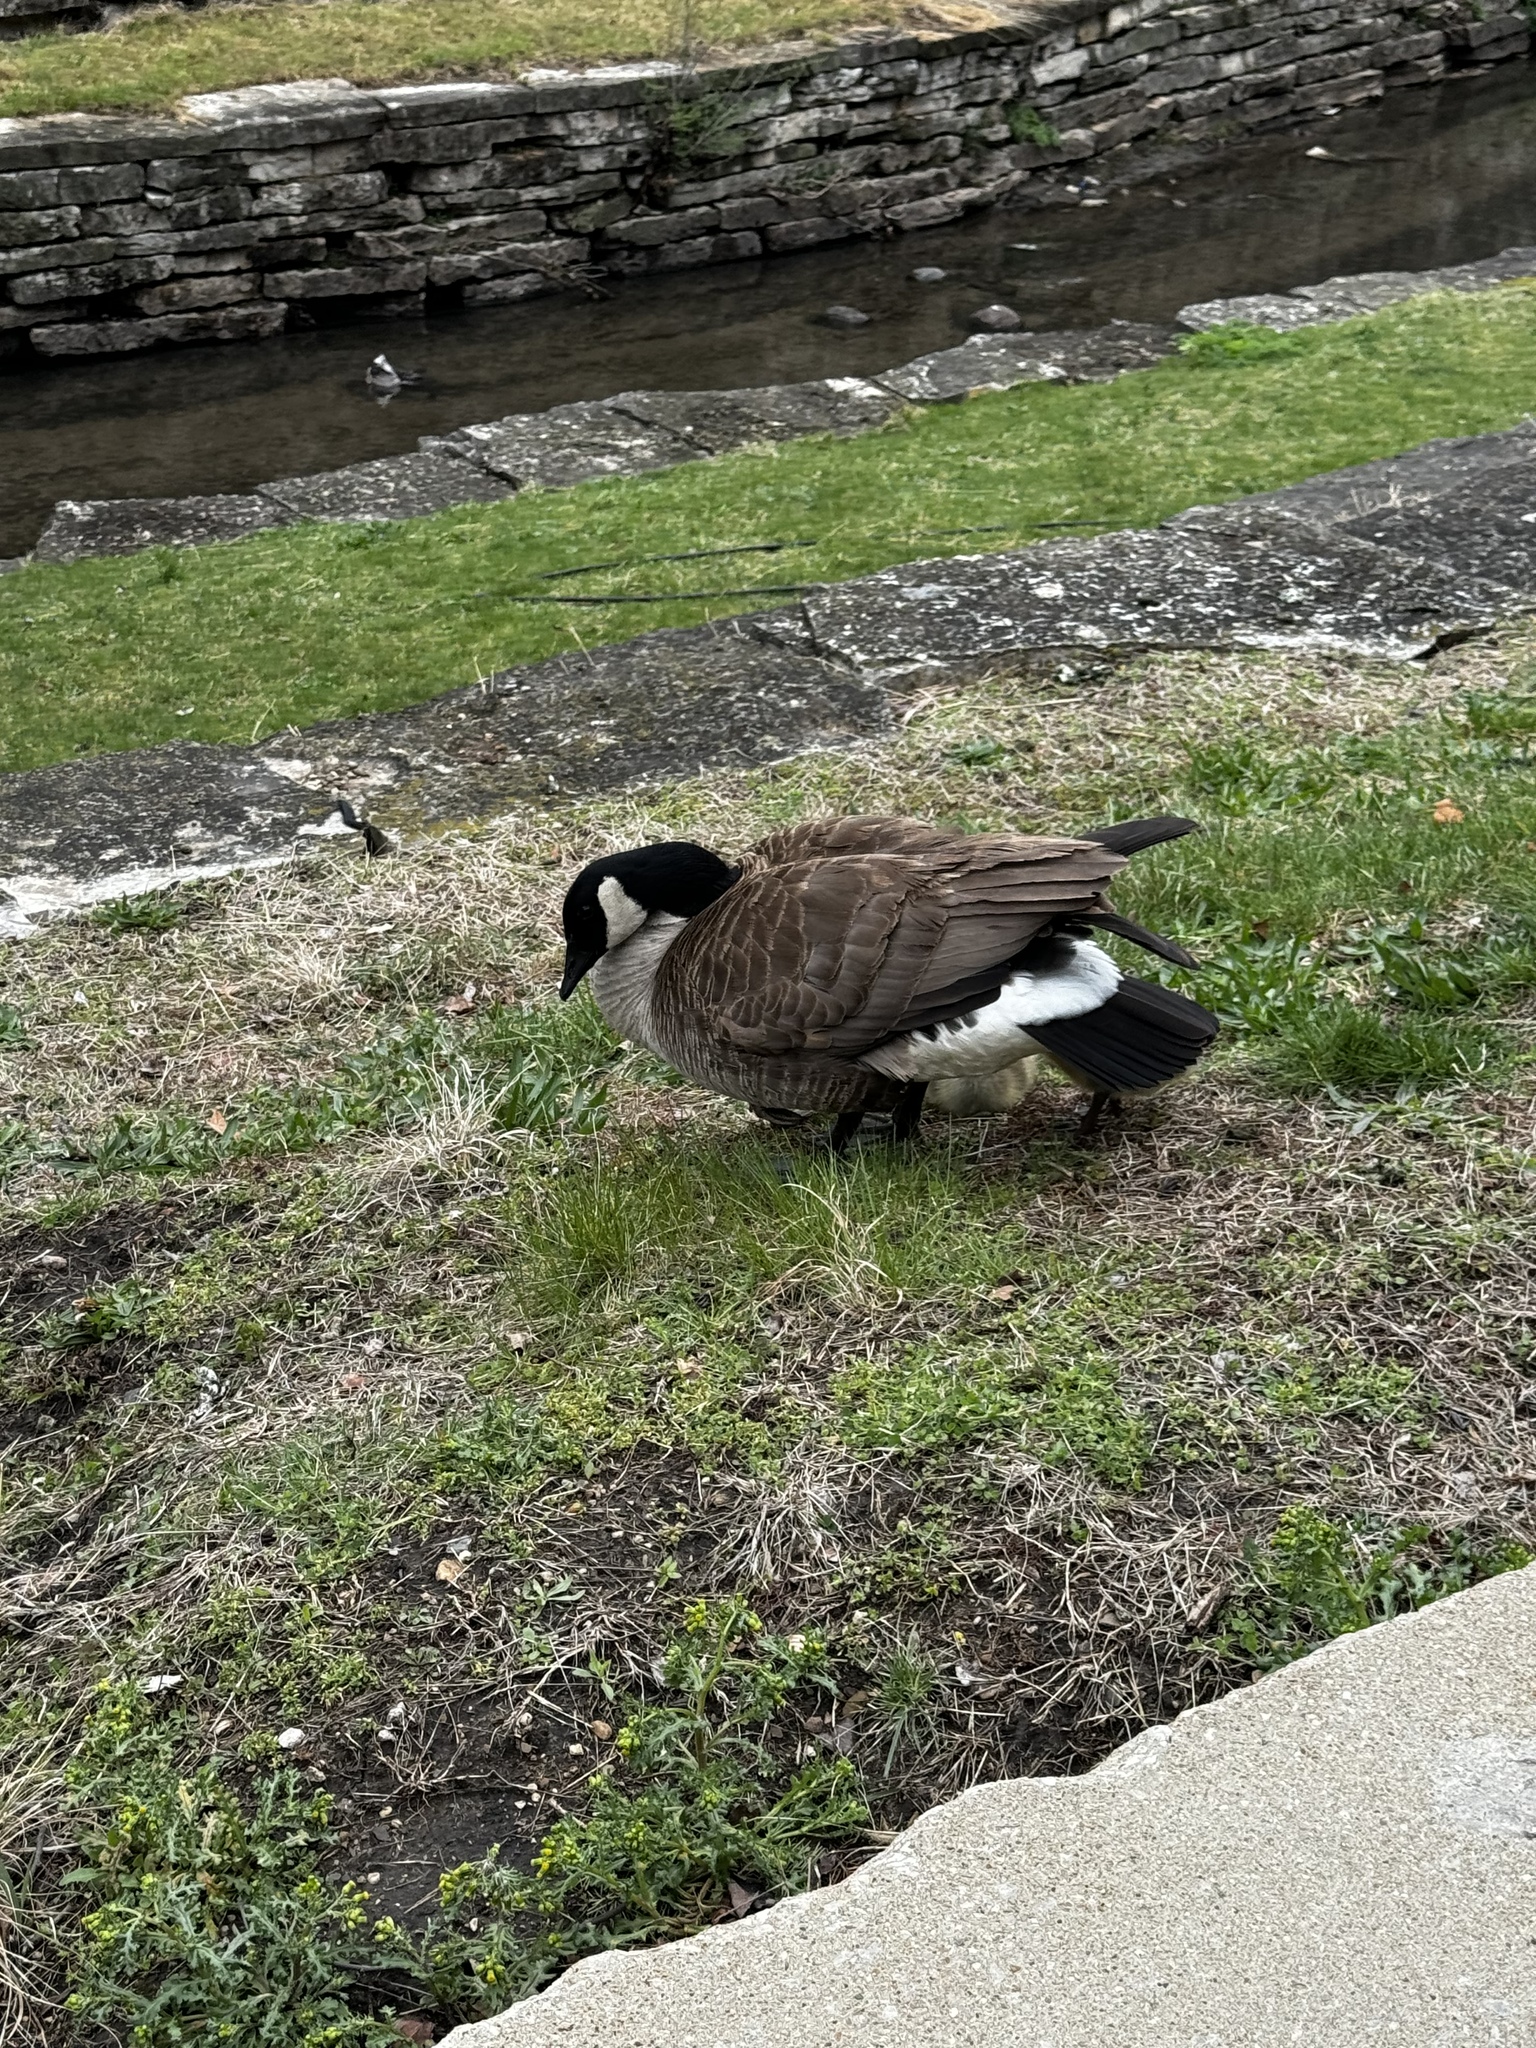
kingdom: Animalia
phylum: Chordata
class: Aves
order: Anseriformes
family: Anatidae
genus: Branta
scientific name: Branta canadensis
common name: Canada goose
